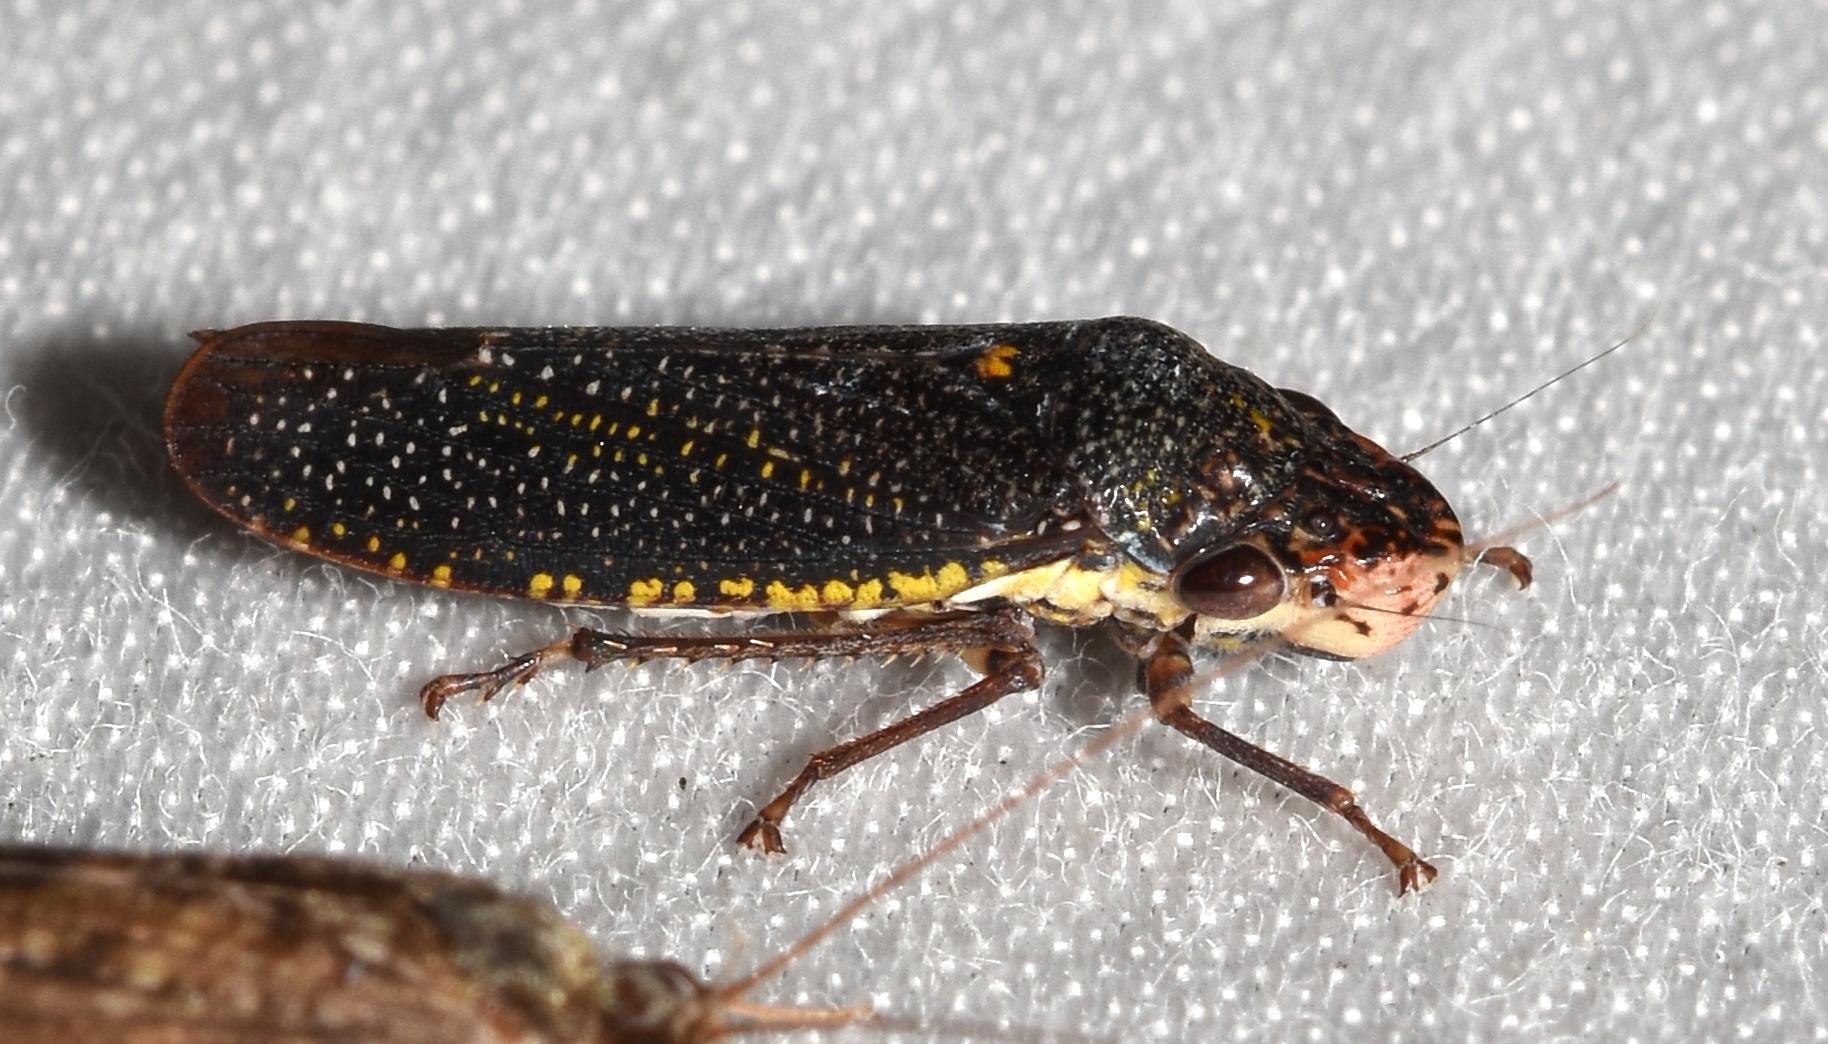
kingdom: Animalia
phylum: Arthropoda
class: Insecta
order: Hemiptera
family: Cicadellidae
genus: Paraulacizes
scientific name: Paraulacizes irrorata
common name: Speckled sharpshooter
